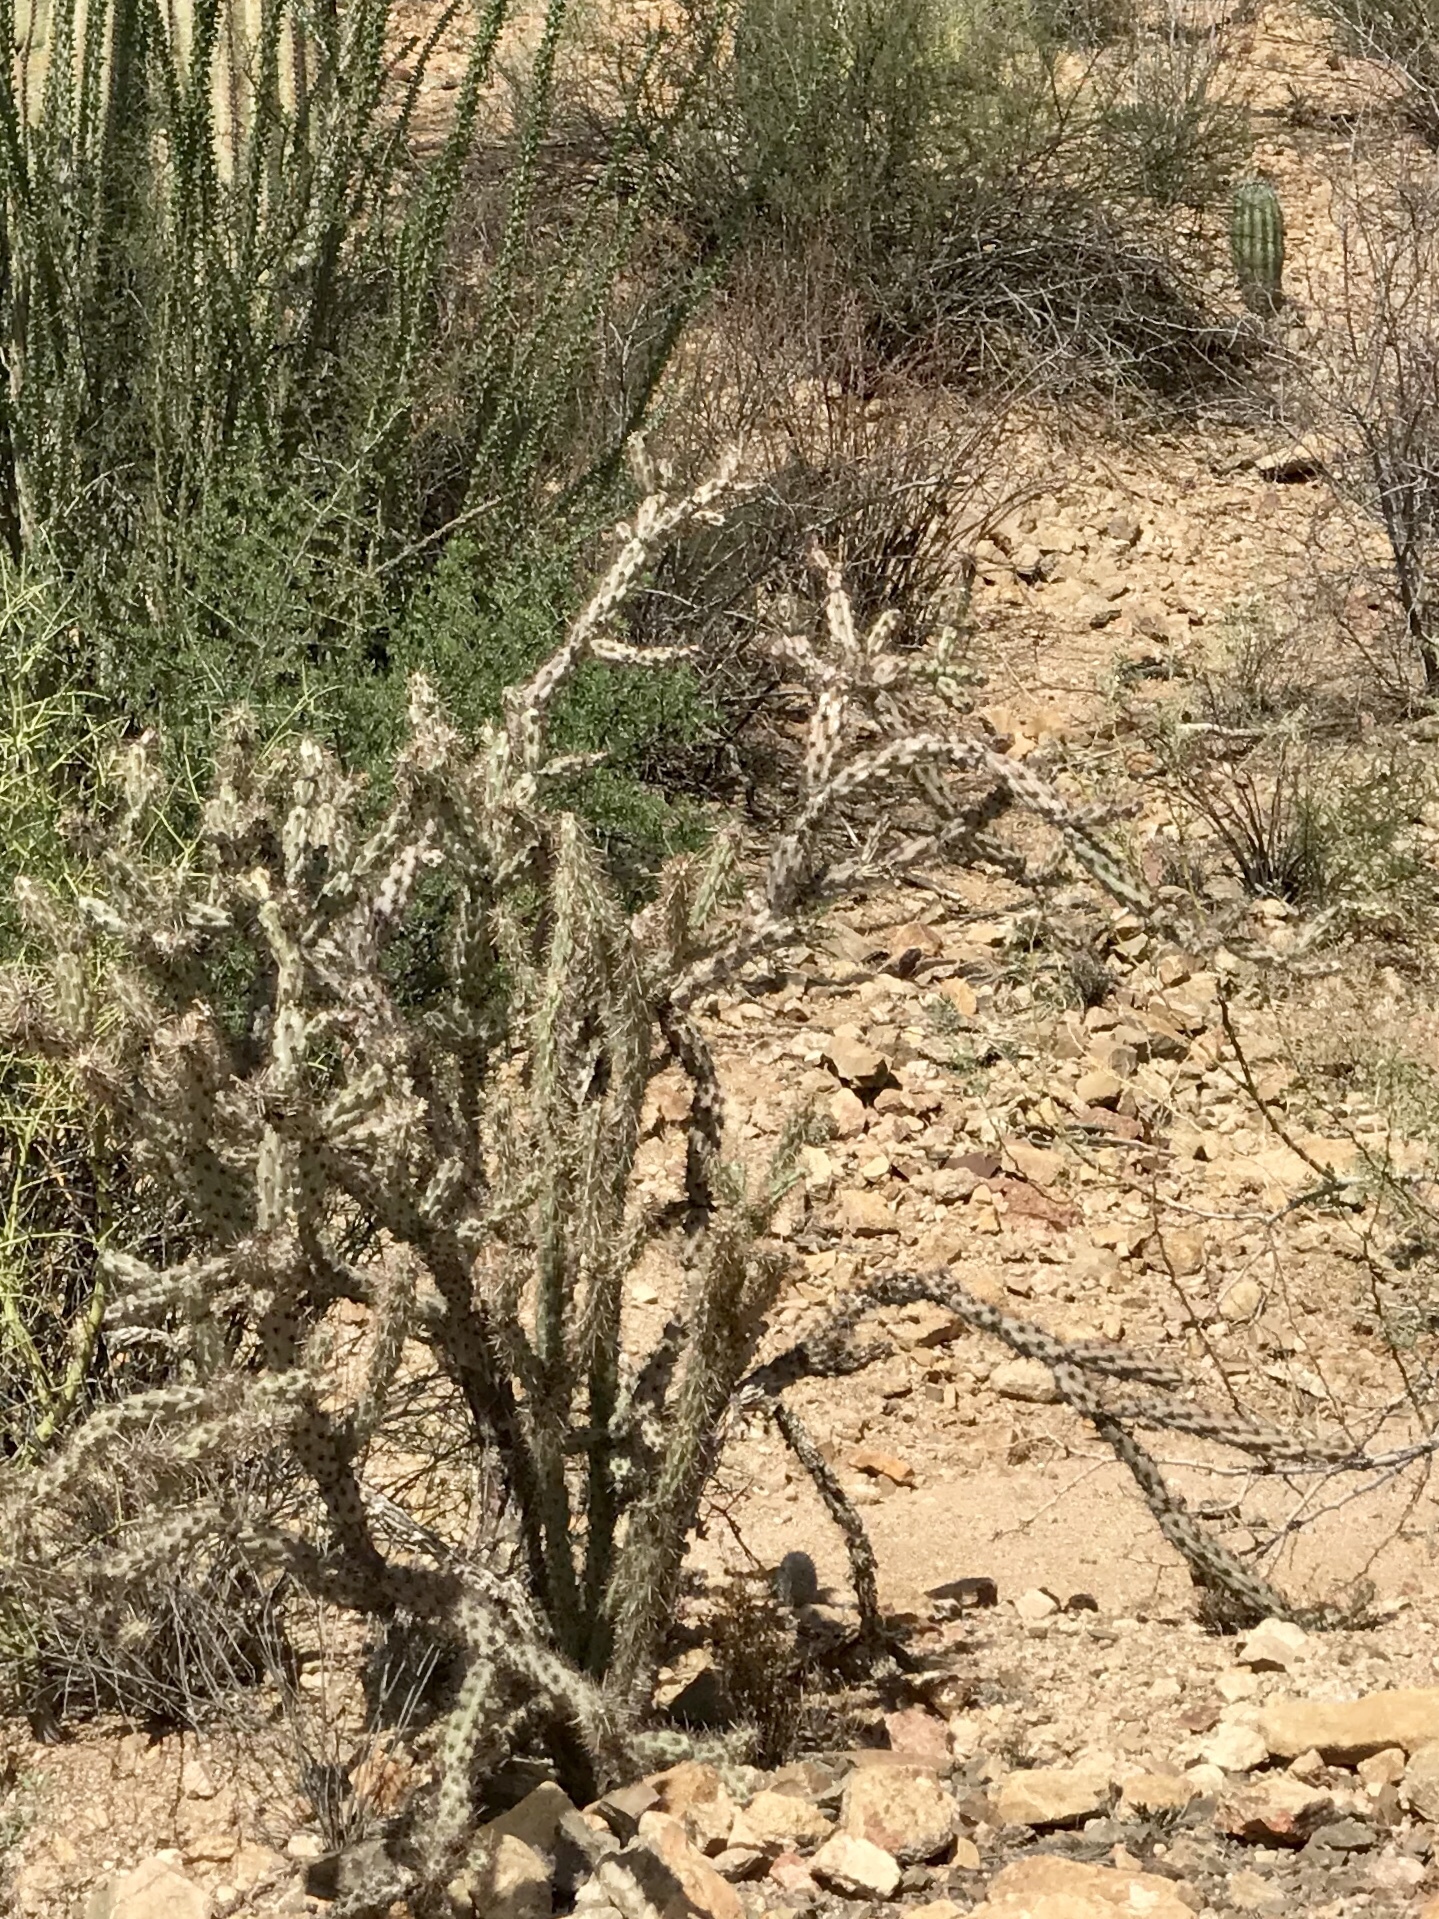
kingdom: Plantae
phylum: Tracheophyta
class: Magnoliopsida
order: Caryophyllales
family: Cactaceae
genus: Cylindropuntia
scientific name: Cylindropuntia acanthocarpa
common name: Buckhorn cholla
